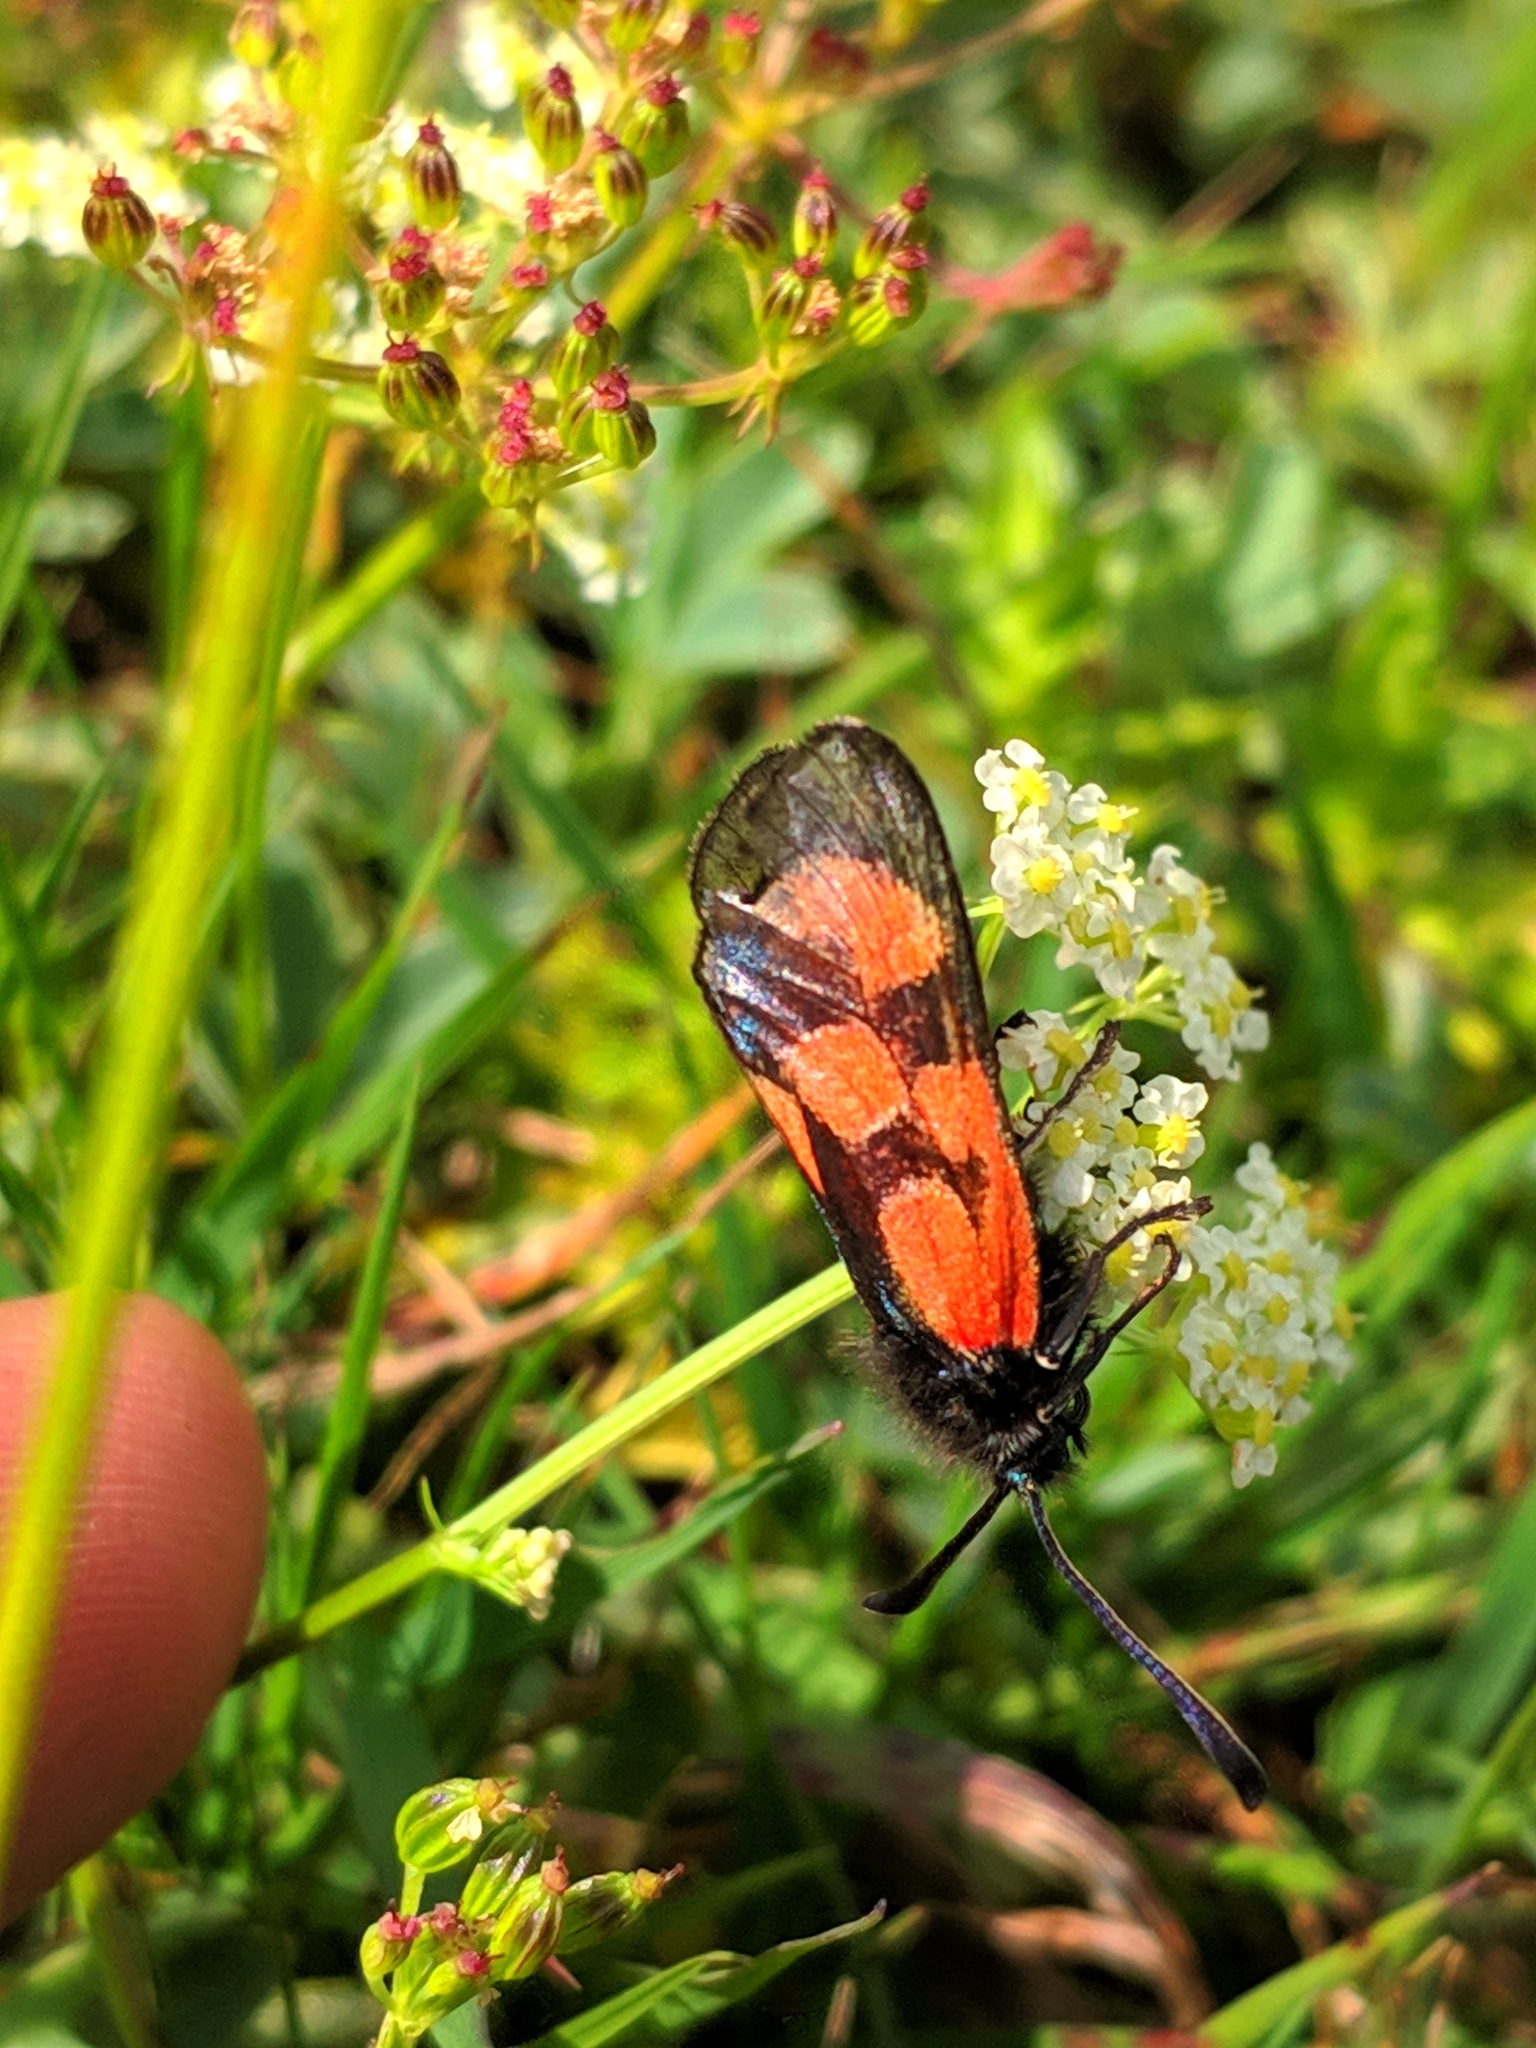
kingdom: Animalia
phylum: Arthropoda
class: Insecta
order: Lepidoptera
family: Zygaenidae
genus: Zygaena
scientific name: Zygaena armena
